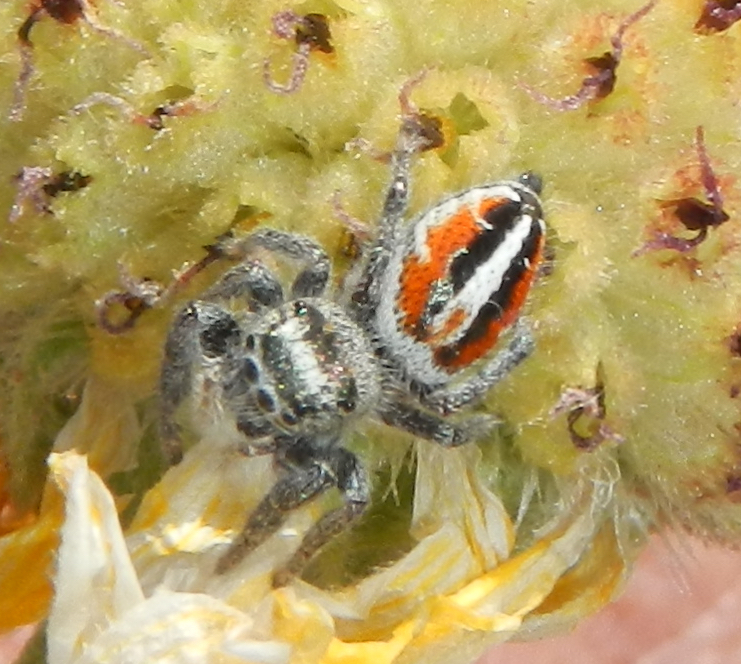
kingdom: Animalia
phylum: Arthropoda
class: Arachnida
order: Araneae
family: Salticidae
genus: Phidippus
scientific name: Phidippus californicus
